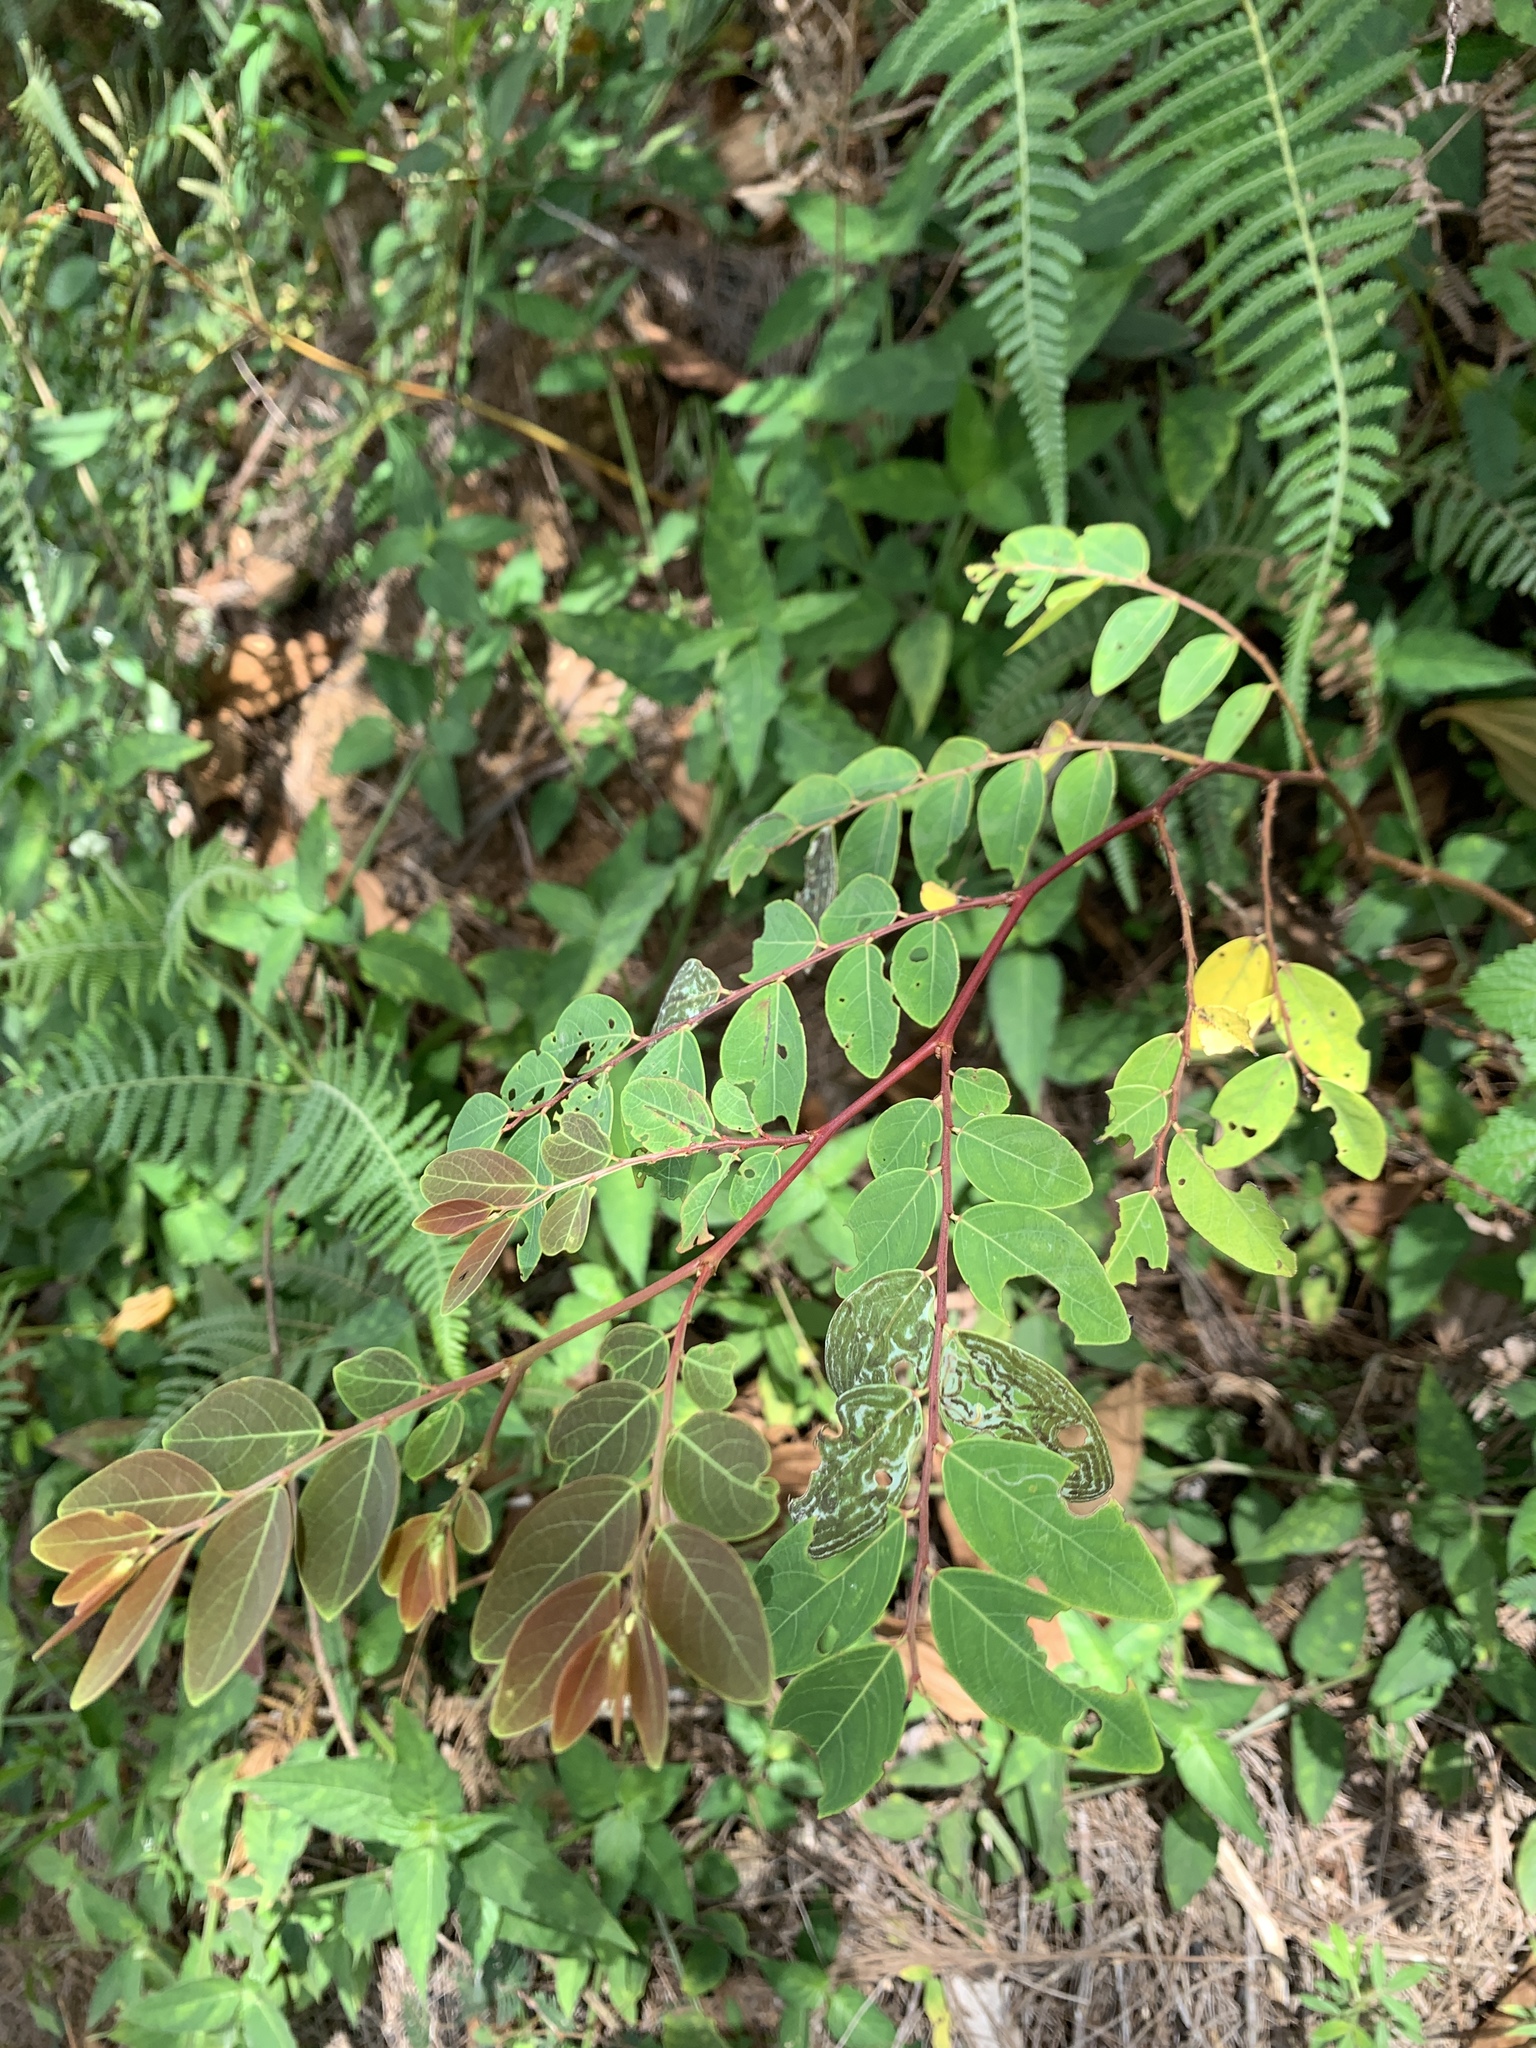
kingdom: Plantae
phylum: Tracheophyta
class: Magnoliopsida
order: Malpighiales
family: Phyllanthaceae
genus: Breynia
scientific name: Breynia vitis-idaea
